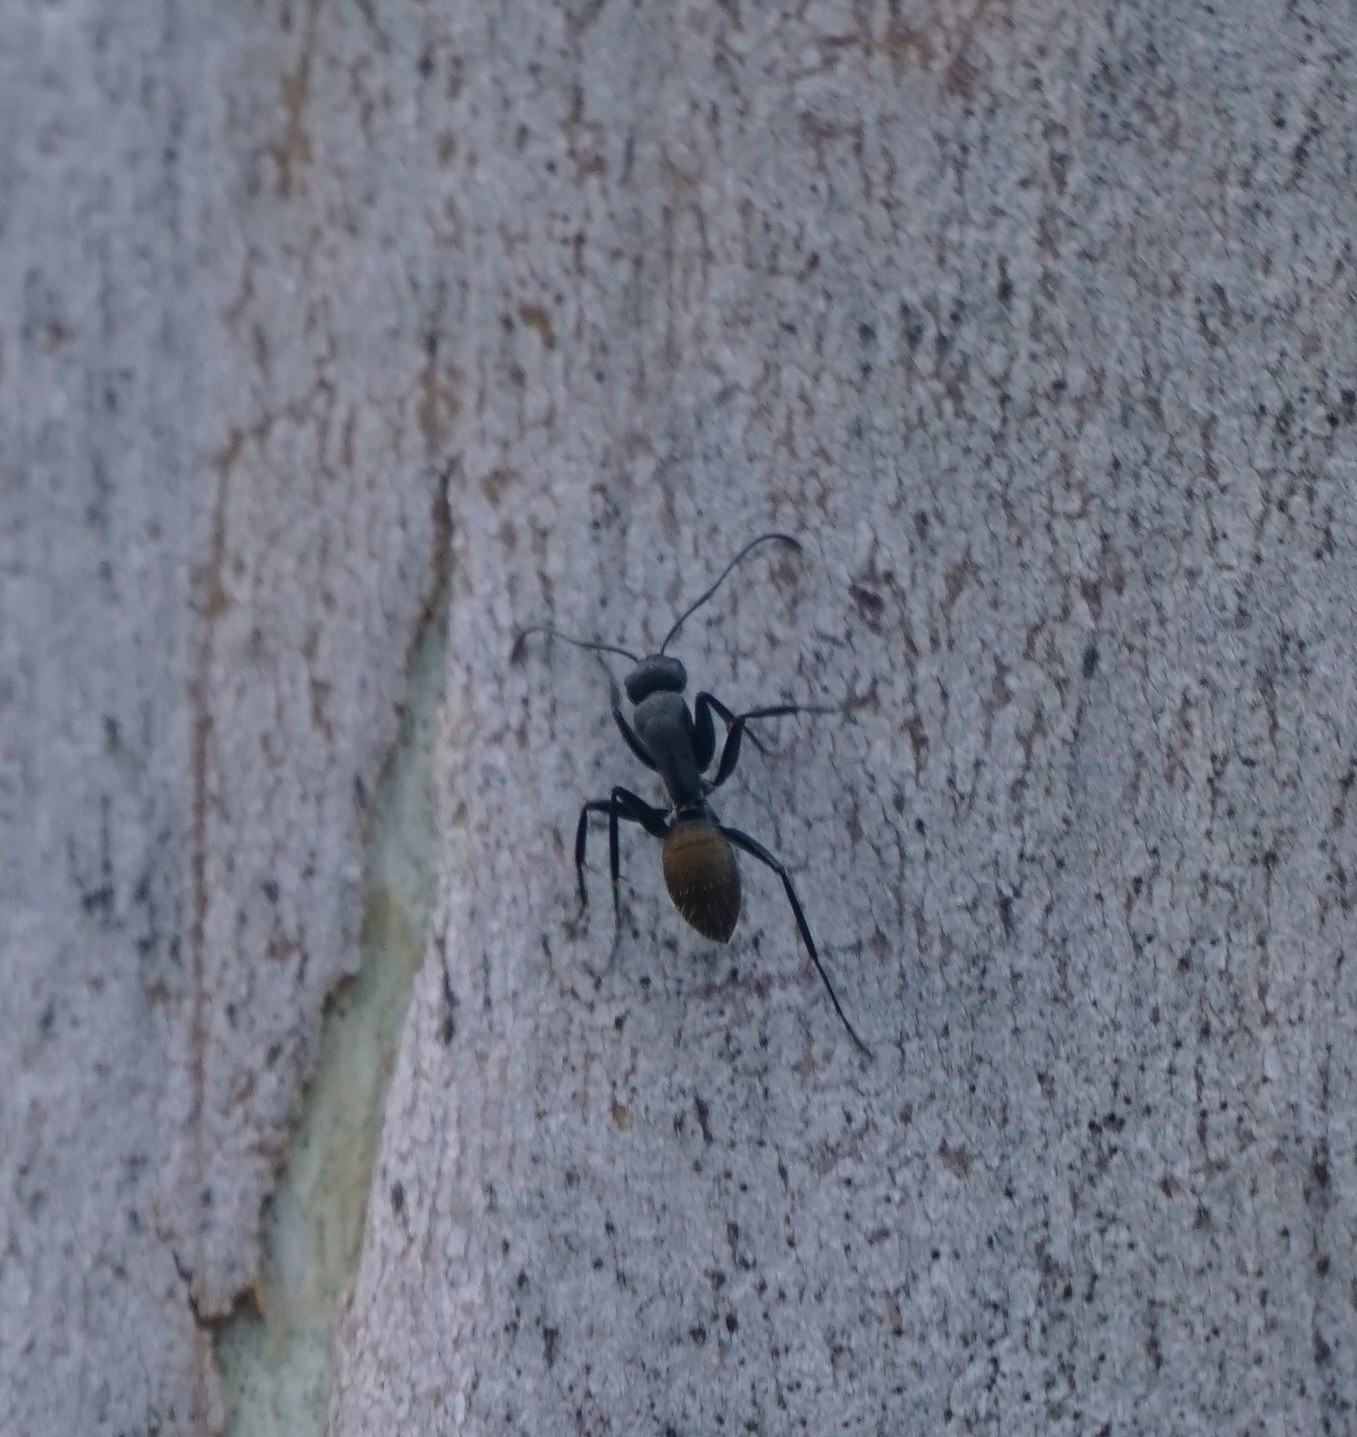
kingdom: Animalia
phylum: Arthropoda
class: Insecta
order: Hymenoptera
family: Formicidae
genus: Camponotus
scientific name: Camponotus aeneopilosus
